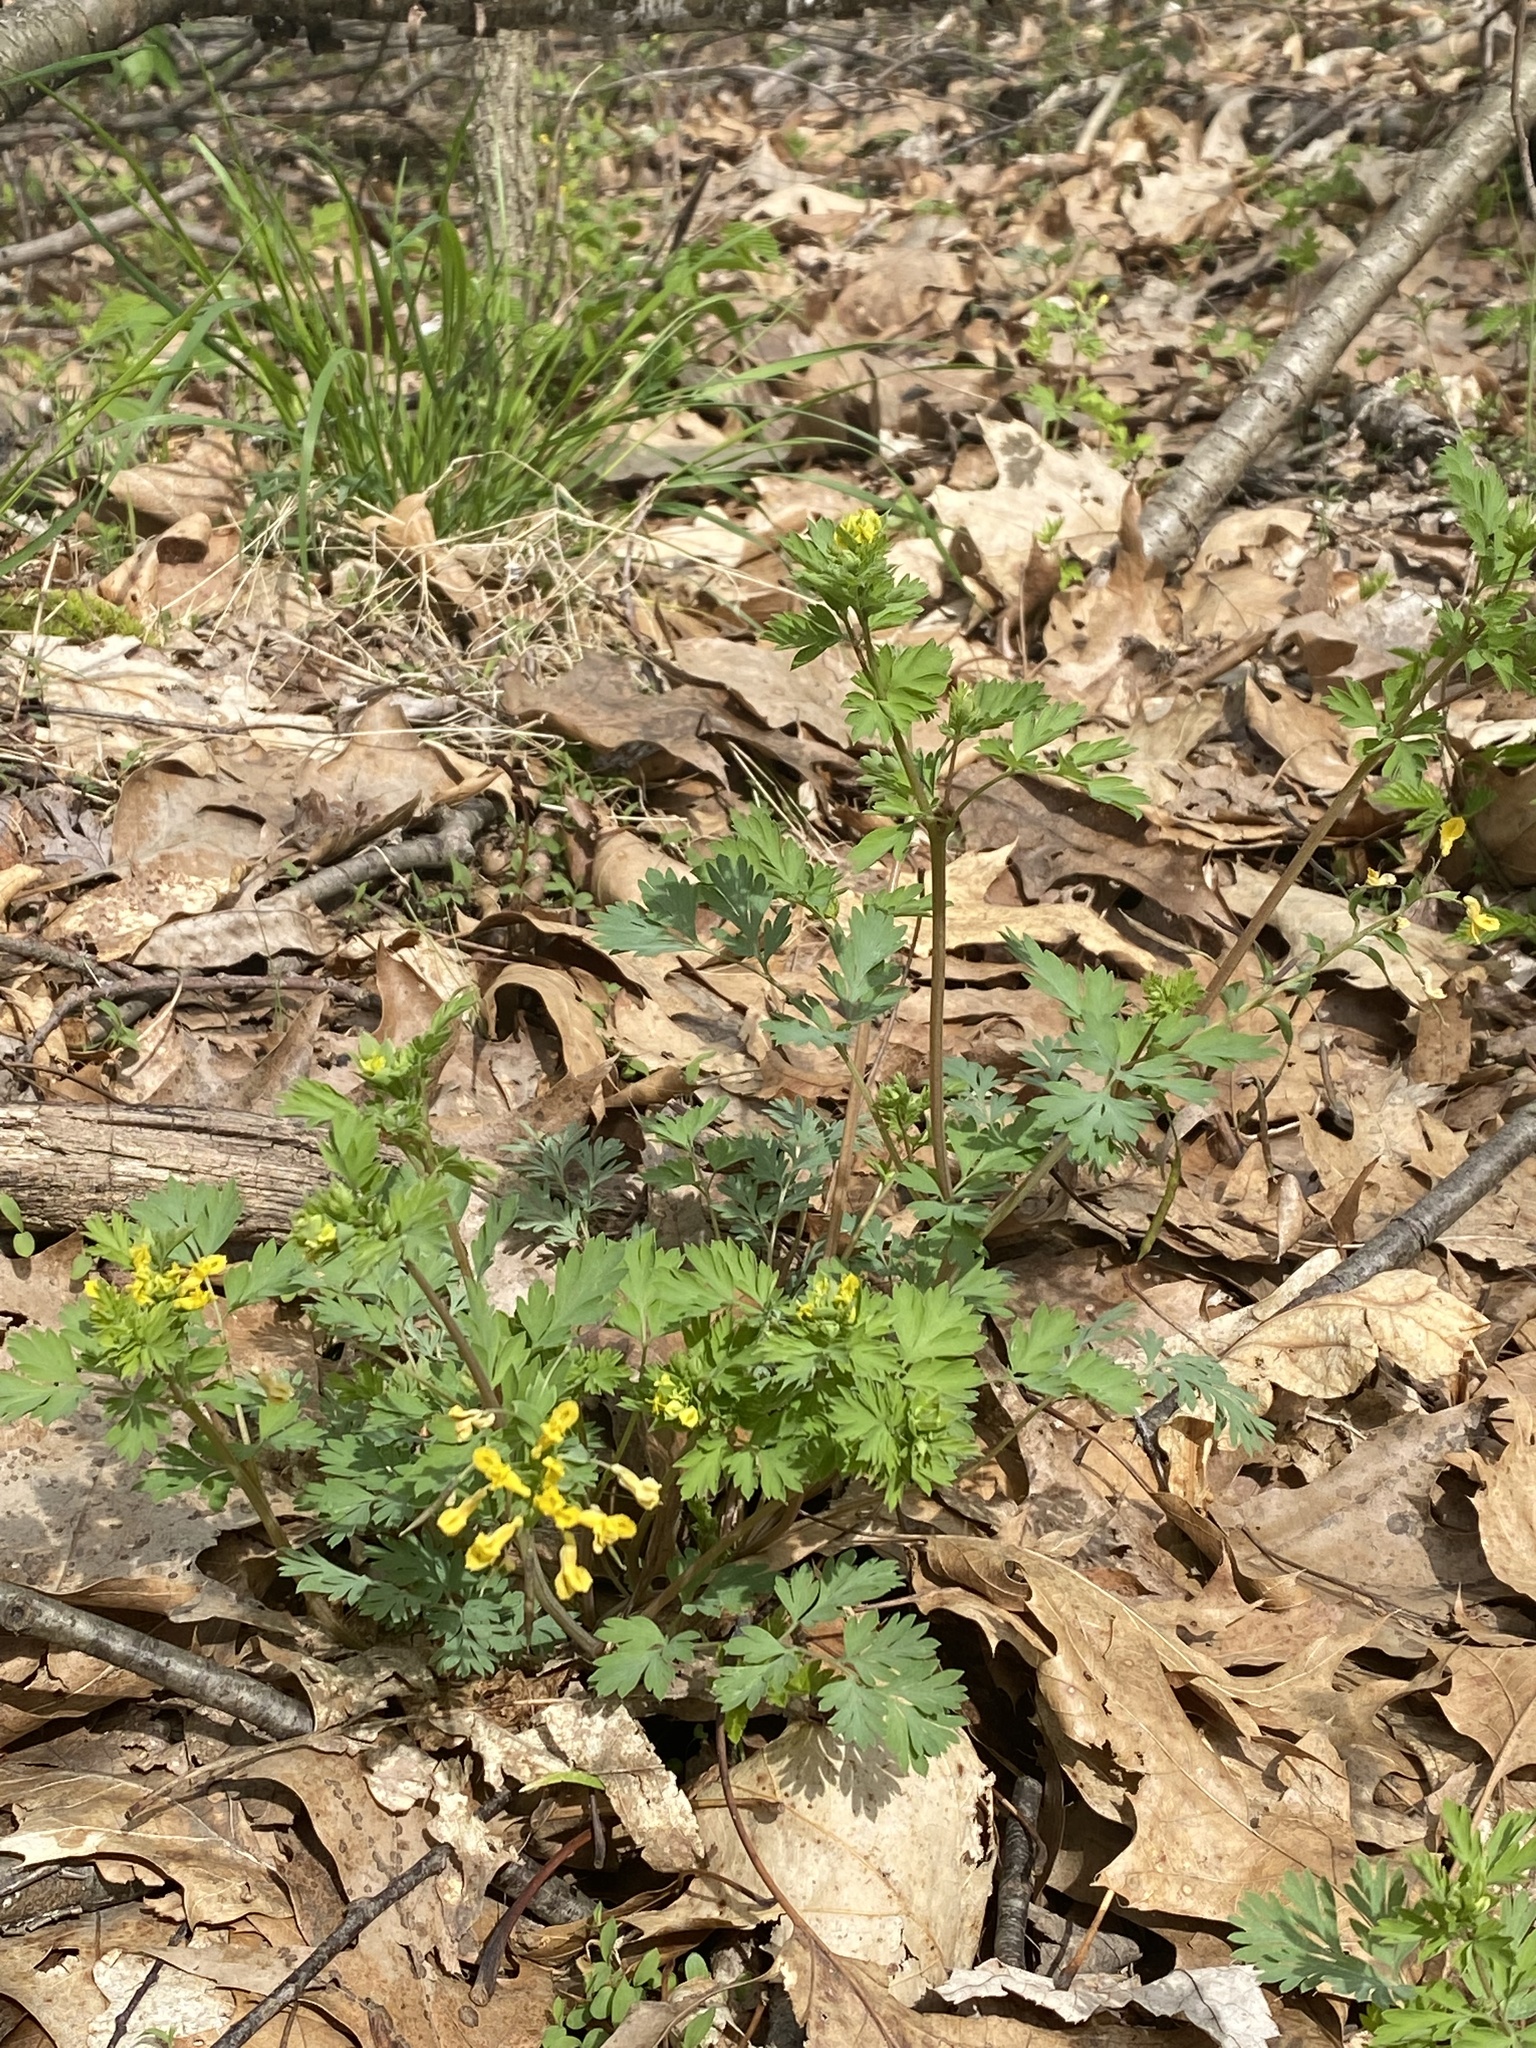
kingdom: Plantae
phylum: Tracheophyta
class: Magnoliopsida
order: Ranunculales
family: Papaveraceae
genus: Corydalis
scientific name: Corydalis flavula
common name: Yellow corydalis
